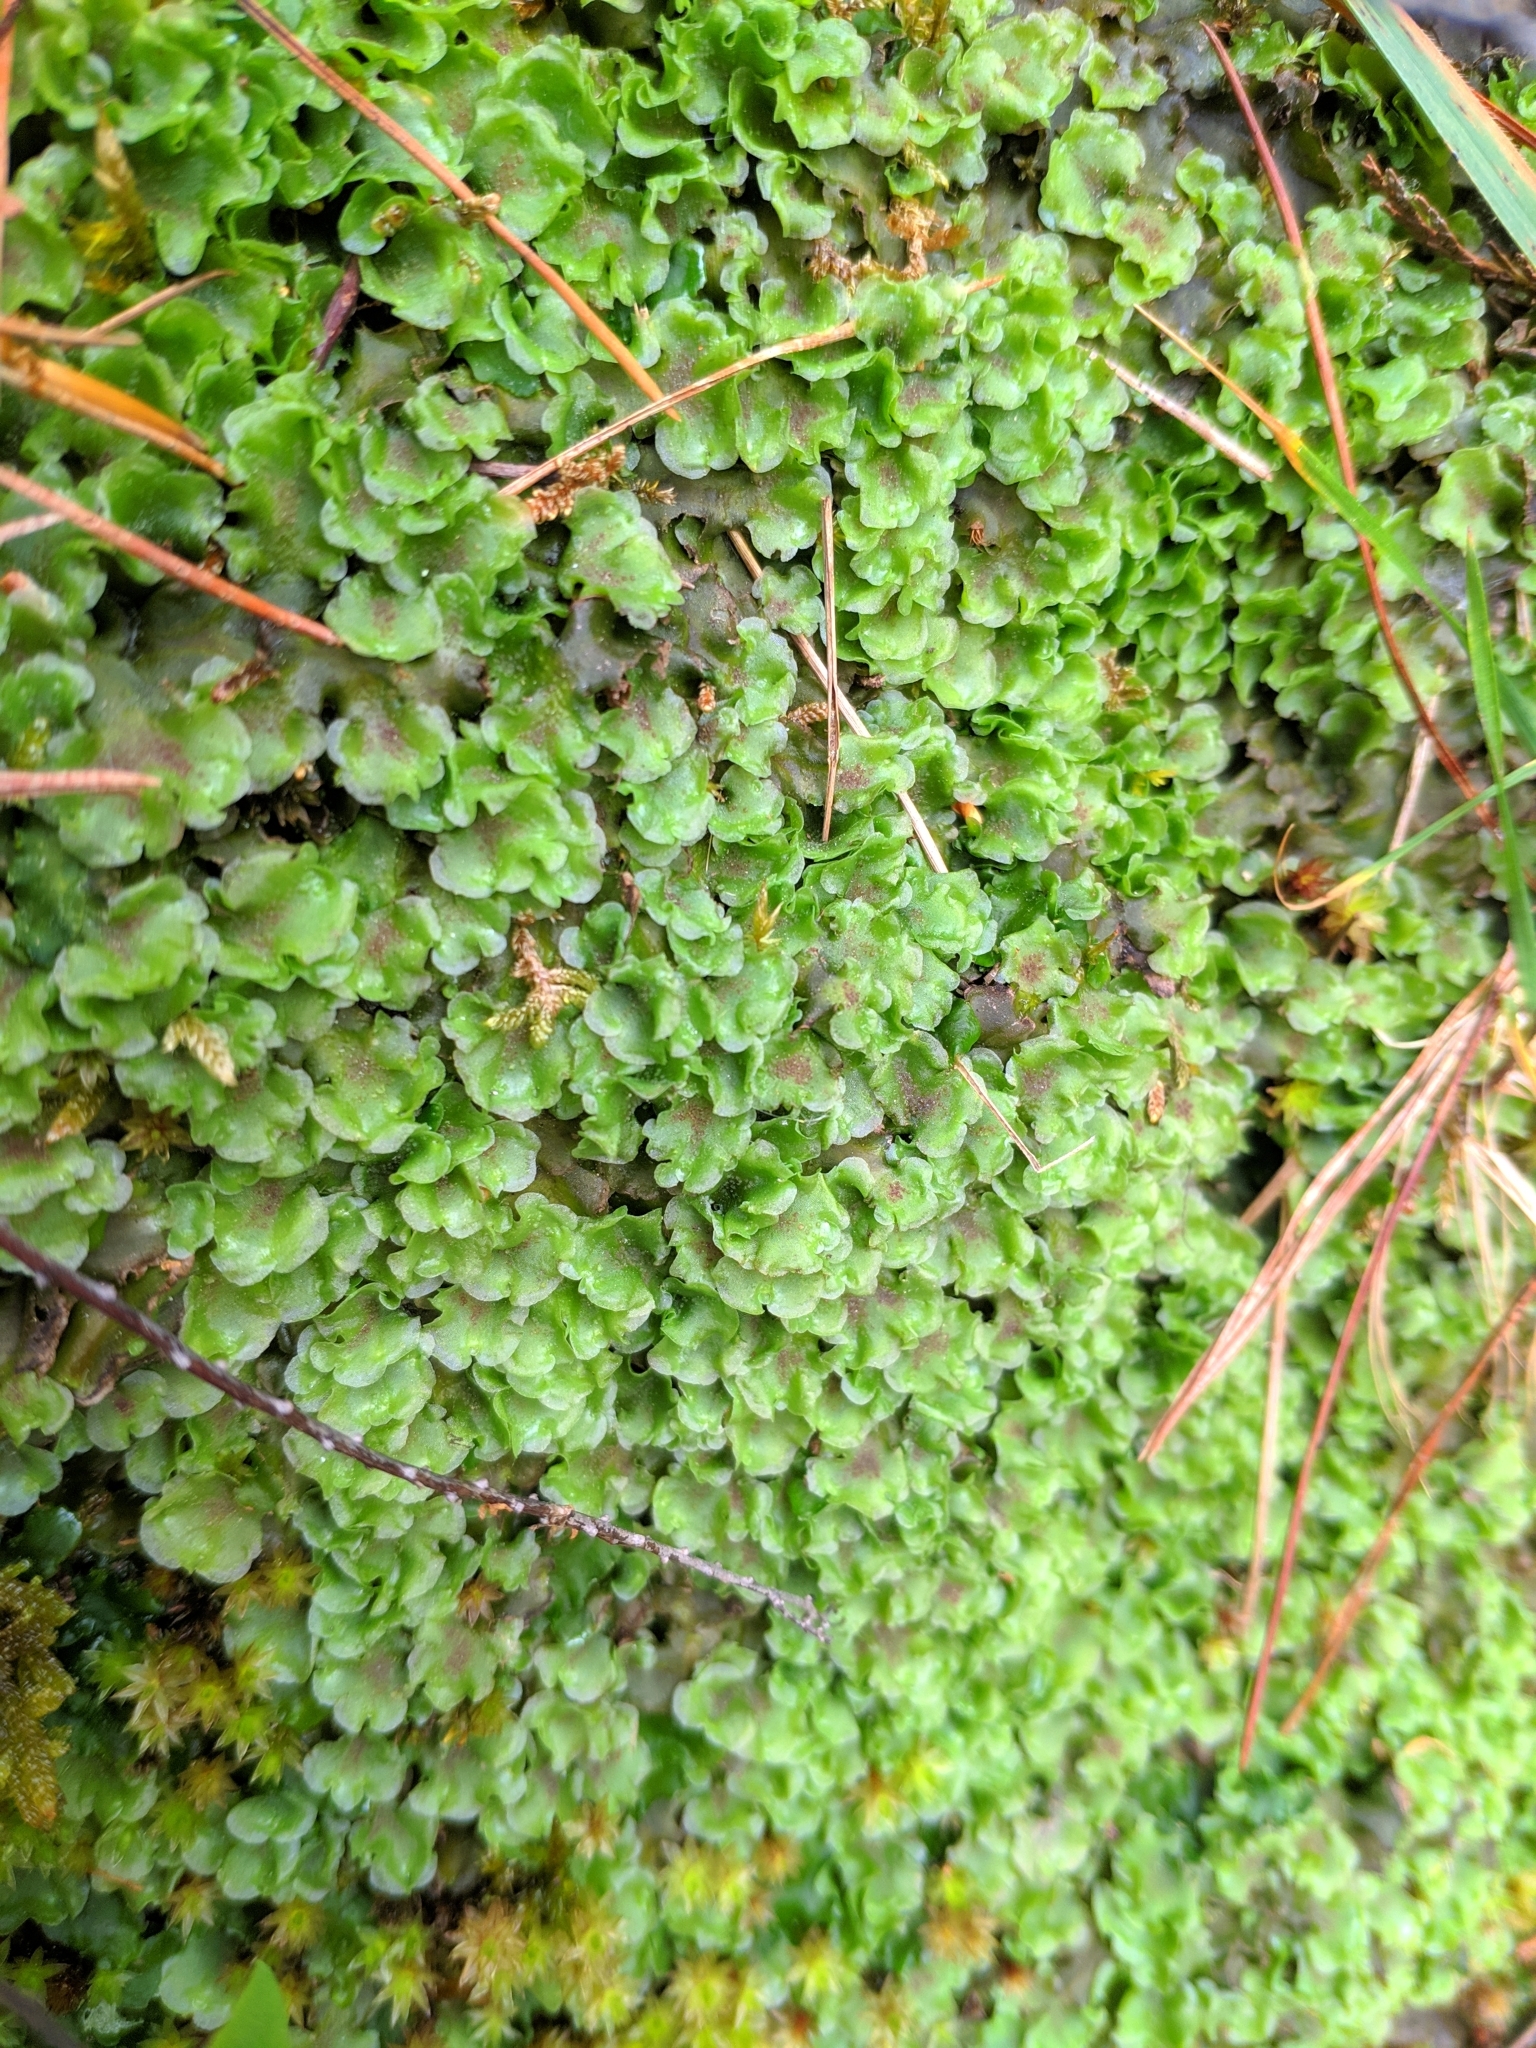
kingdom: Plantae
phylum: Marchantiophyta
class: Jungermanniopsida
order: Pelliales
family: Pelliaceae
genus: Pellia
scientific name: Pellia neesiana
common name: Nees  pellia
